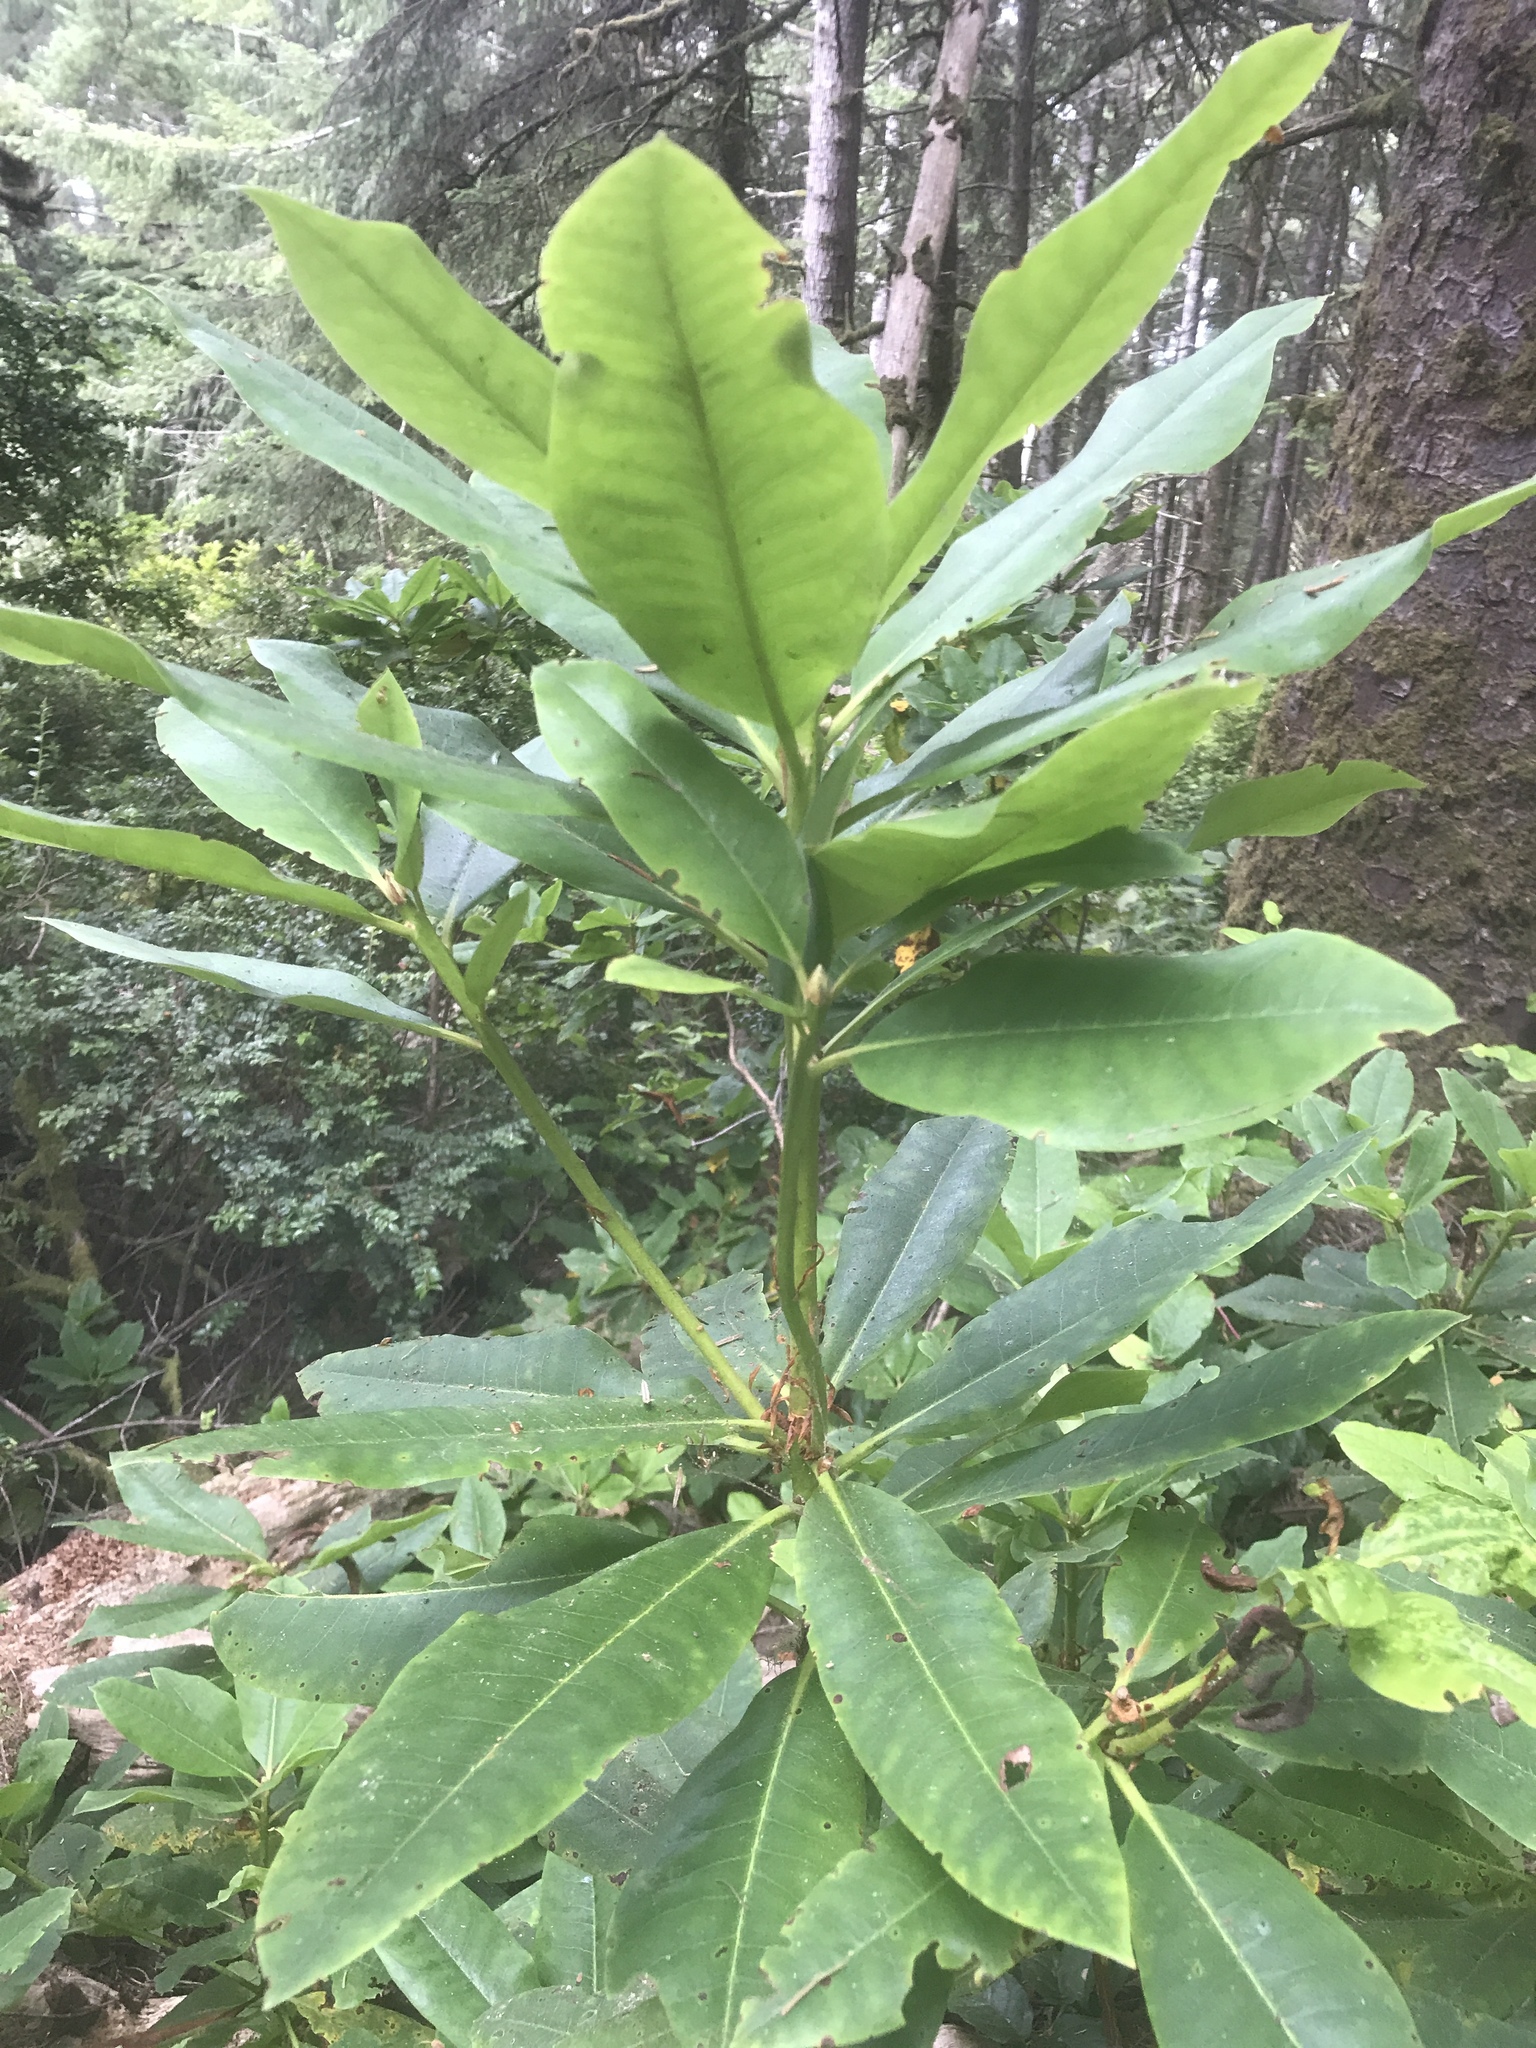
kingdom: Plantae
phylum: Tracheophyta
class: Magnoliopsida
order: Ericales
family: Ericaceae
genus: Rhododendron
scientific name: Rhododendron macrophyllum
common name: California rose bay
